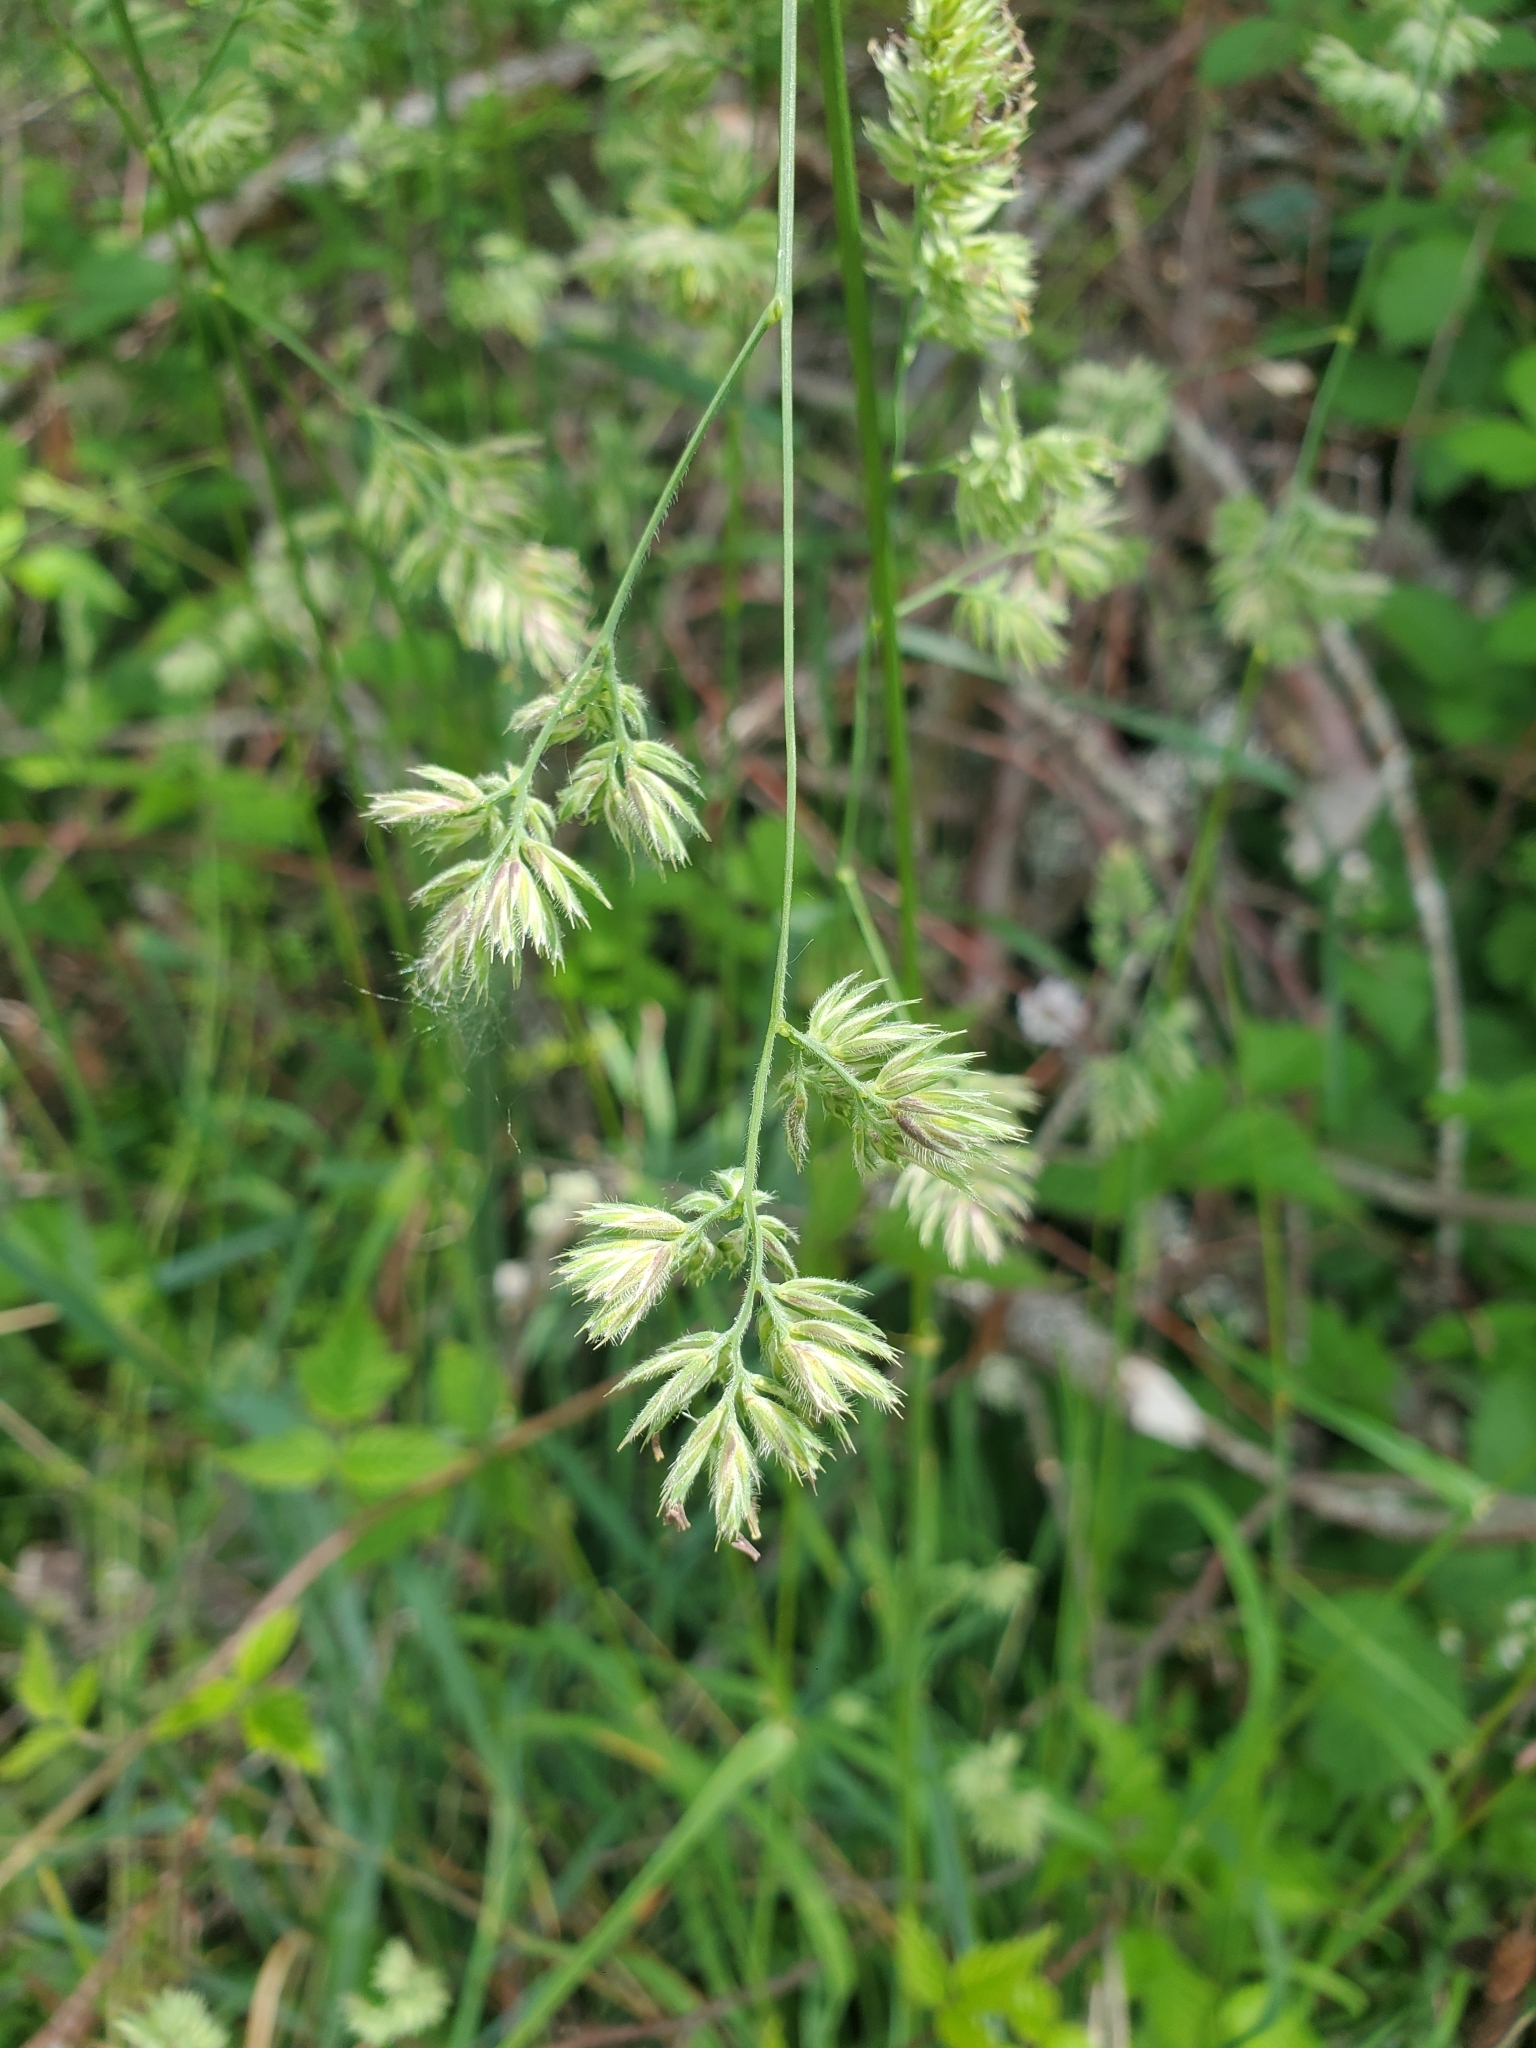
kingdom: Plantae
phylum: Tracheophyta
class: Liliopsida
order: Poales
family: Poaceae
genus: Dactylis
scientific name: Dactylis glomerata
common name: Orchardgrass
